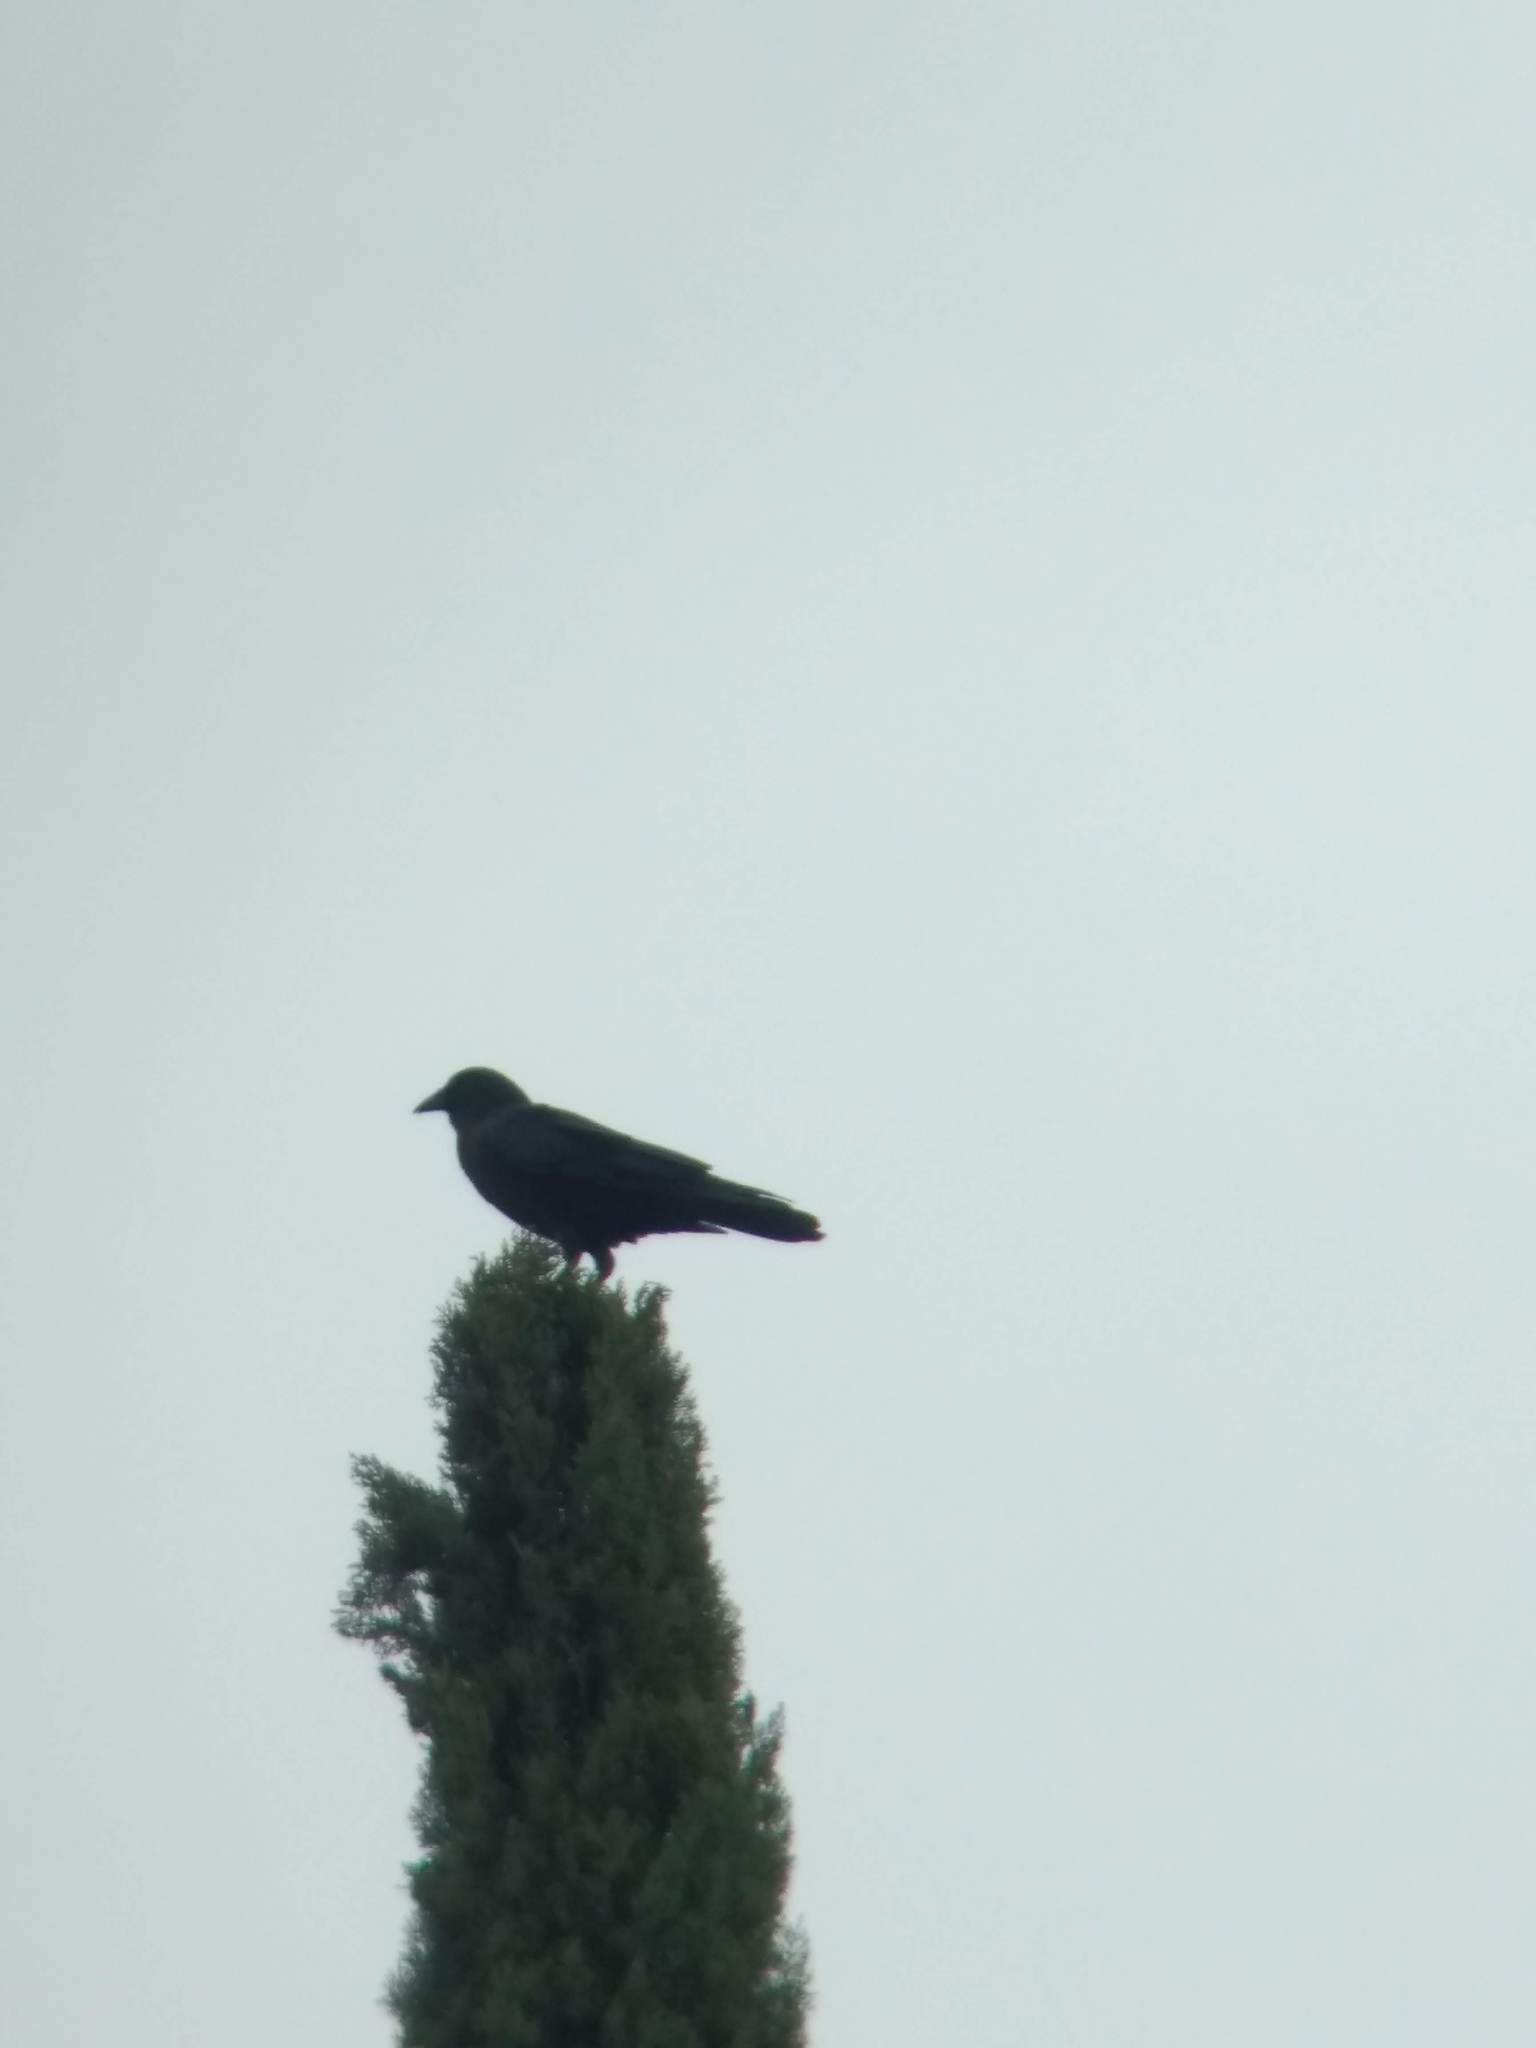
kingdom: Animalia
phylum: Chordata
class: Aves
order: Passeriformes
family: Corvidae
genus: Corvus
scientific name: Corvus brachyrhynchos
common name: American crow
